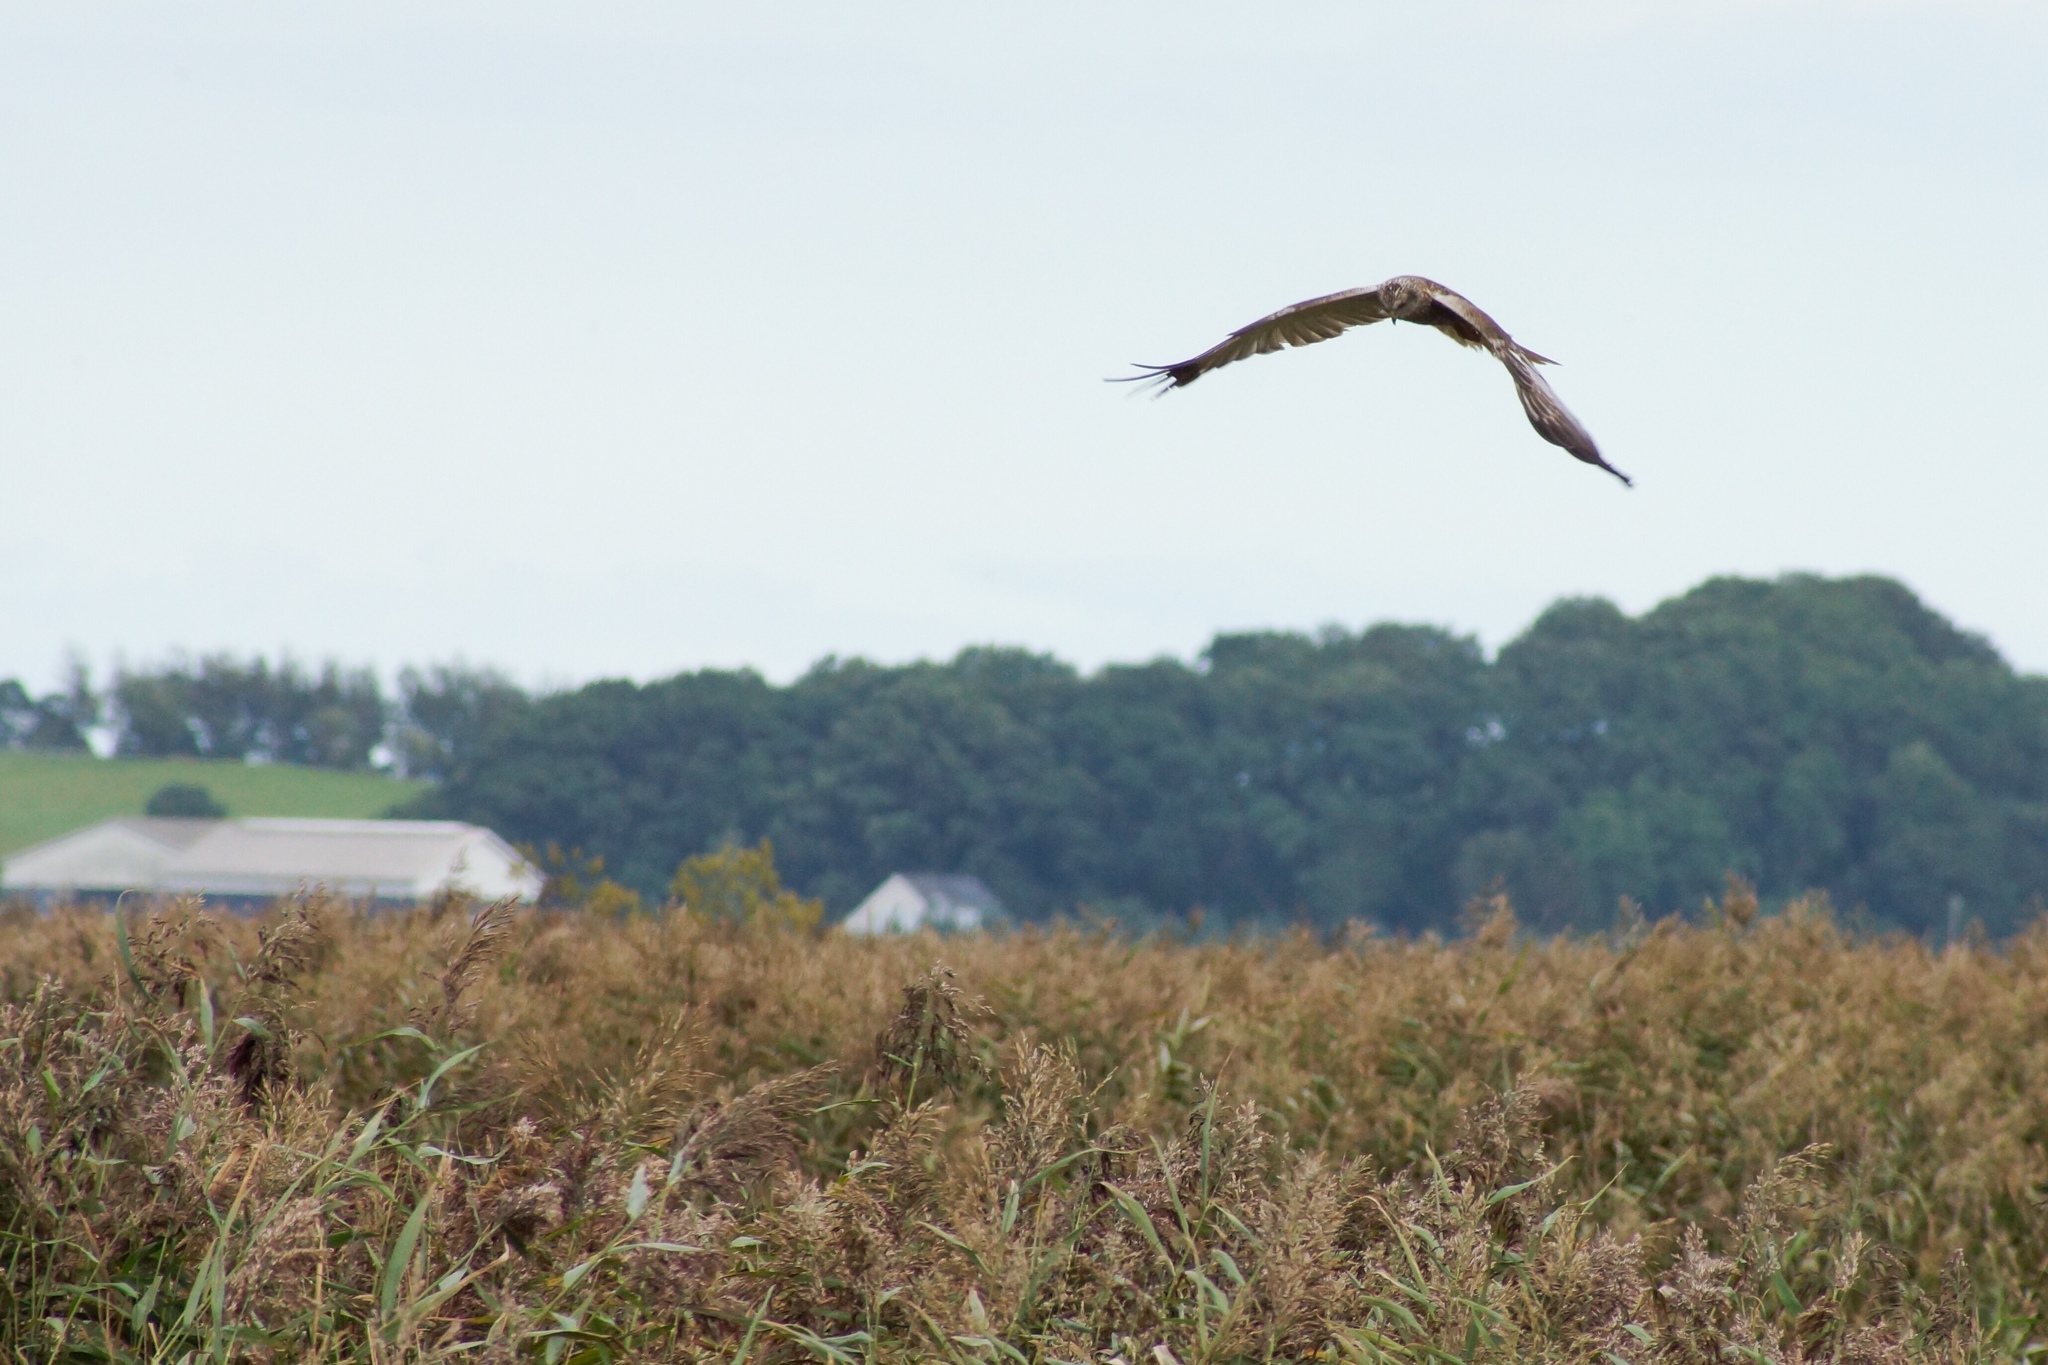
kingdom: Animalia
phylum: Chordata
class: Aves
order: Accipitriformes
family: Accipitridae
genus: Circus
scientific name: Circus aeruginosus
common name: Western marsh harrier
